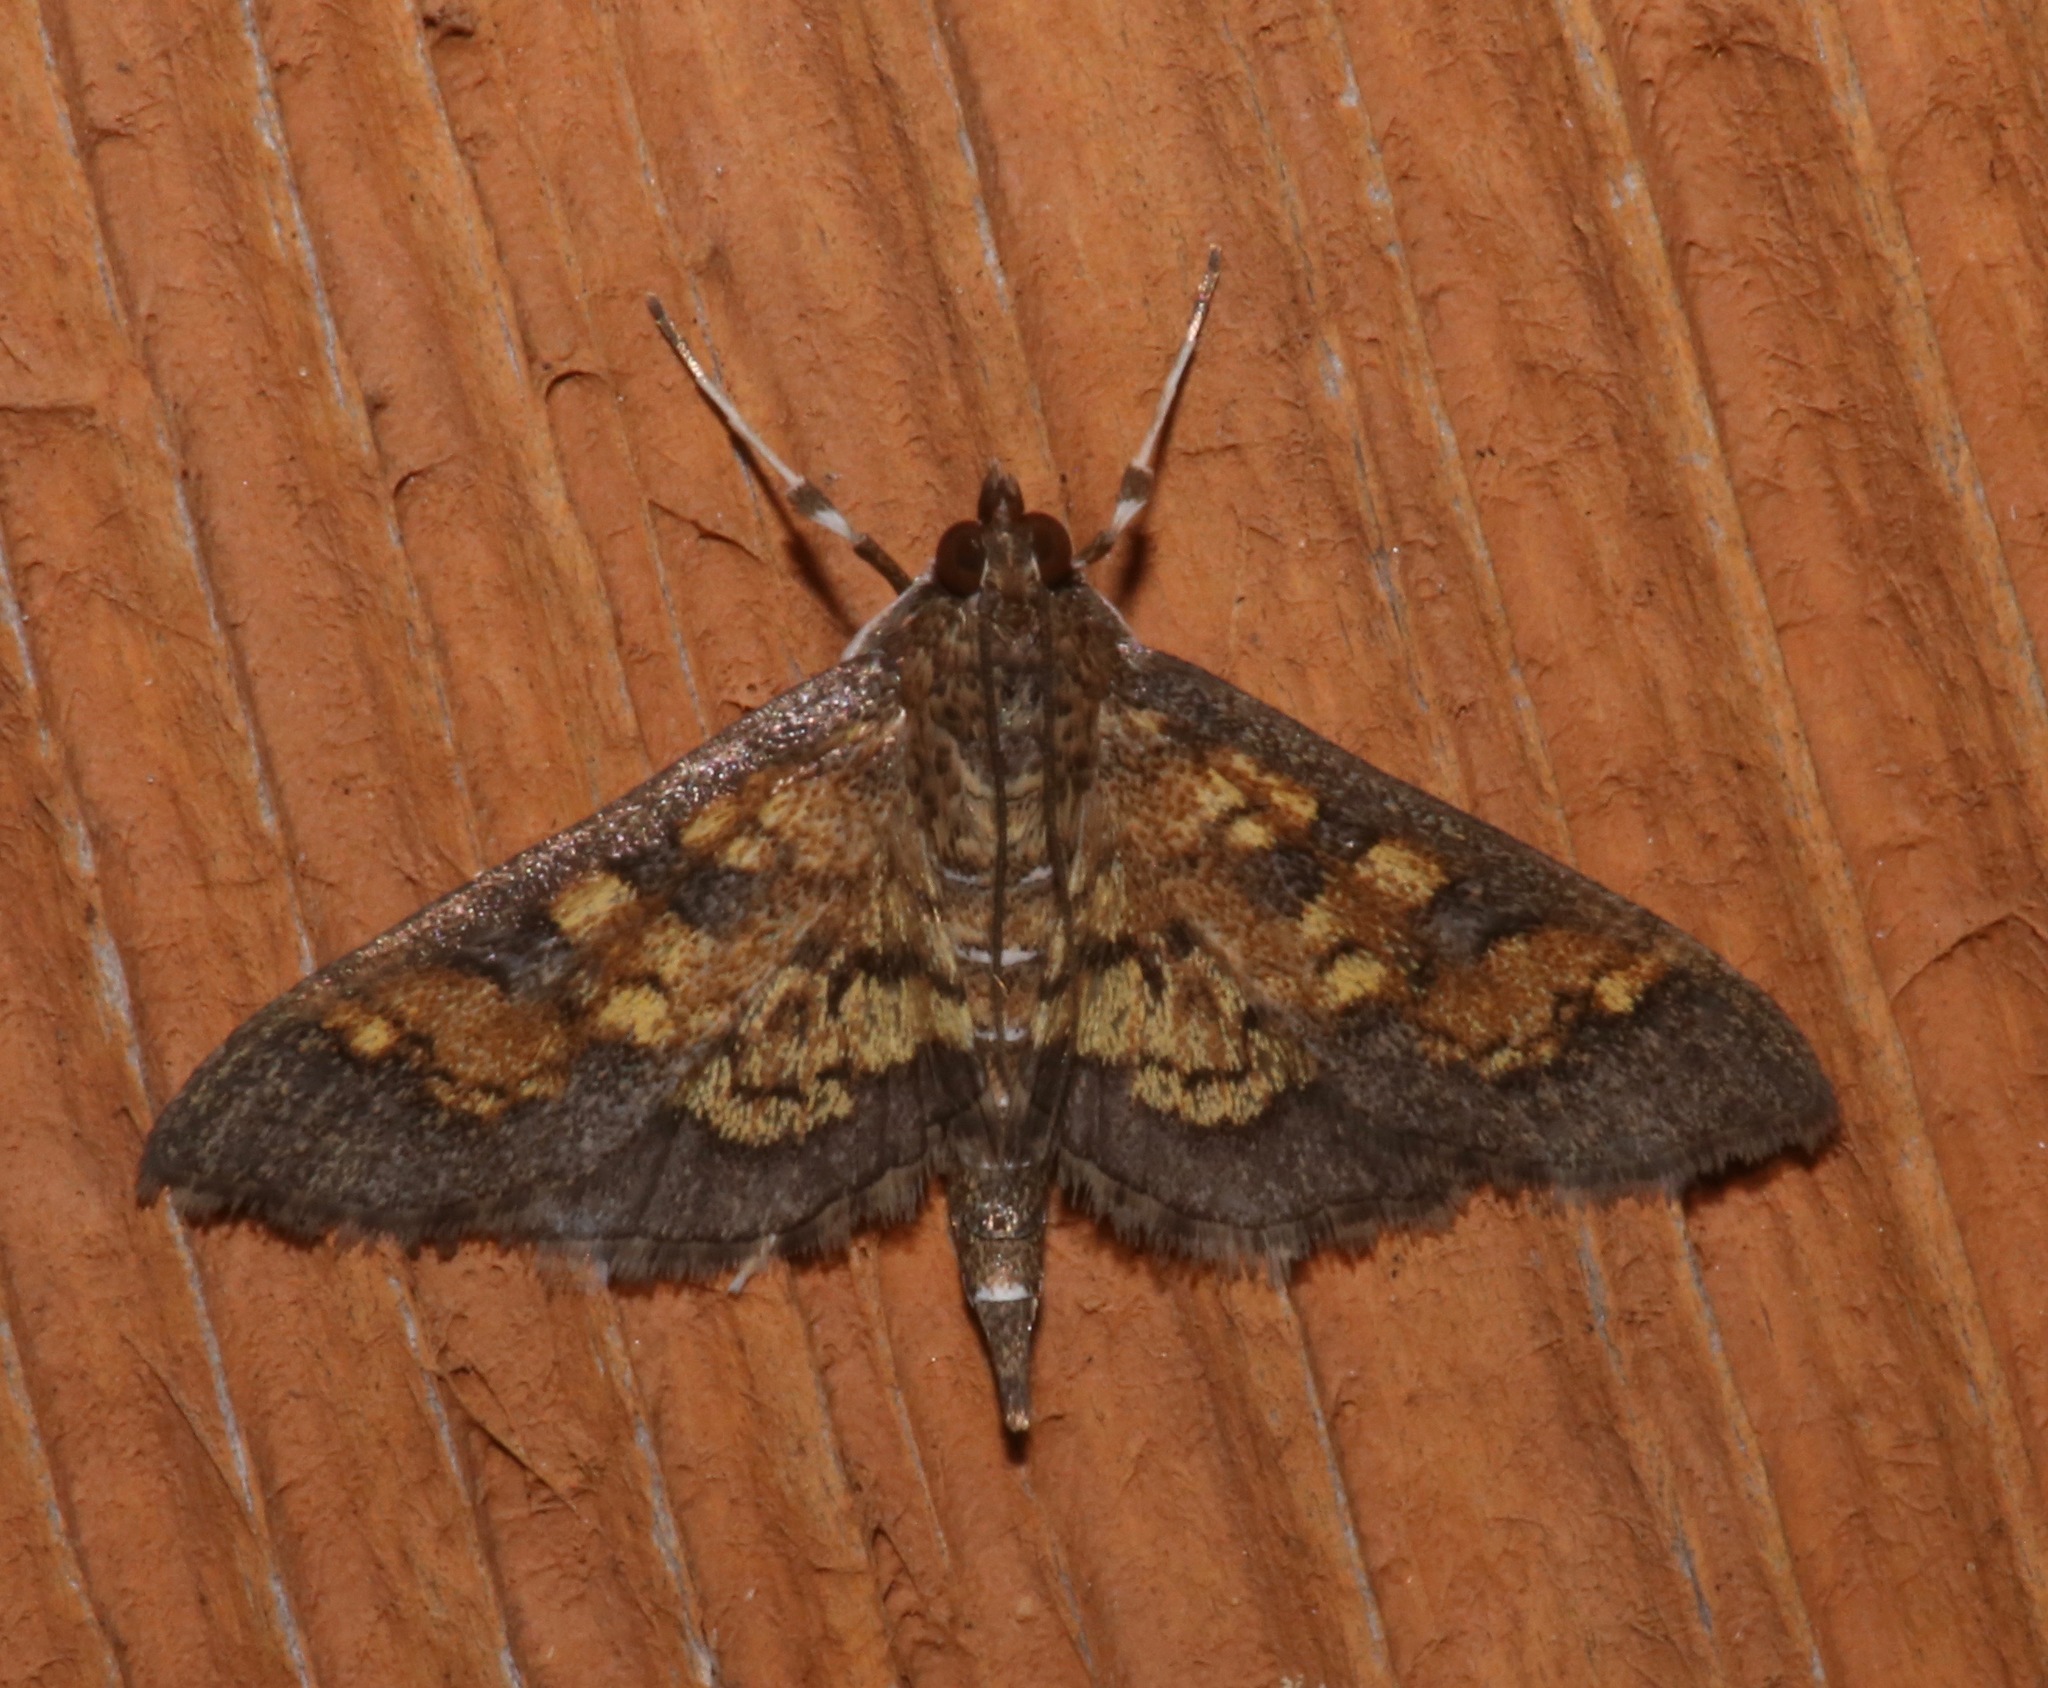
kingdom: Animalia
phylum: Arthropoda
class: Insecta
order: Lepidoptera
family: Crambidae
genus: Epipagis
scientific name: Epipagis adipaloides
